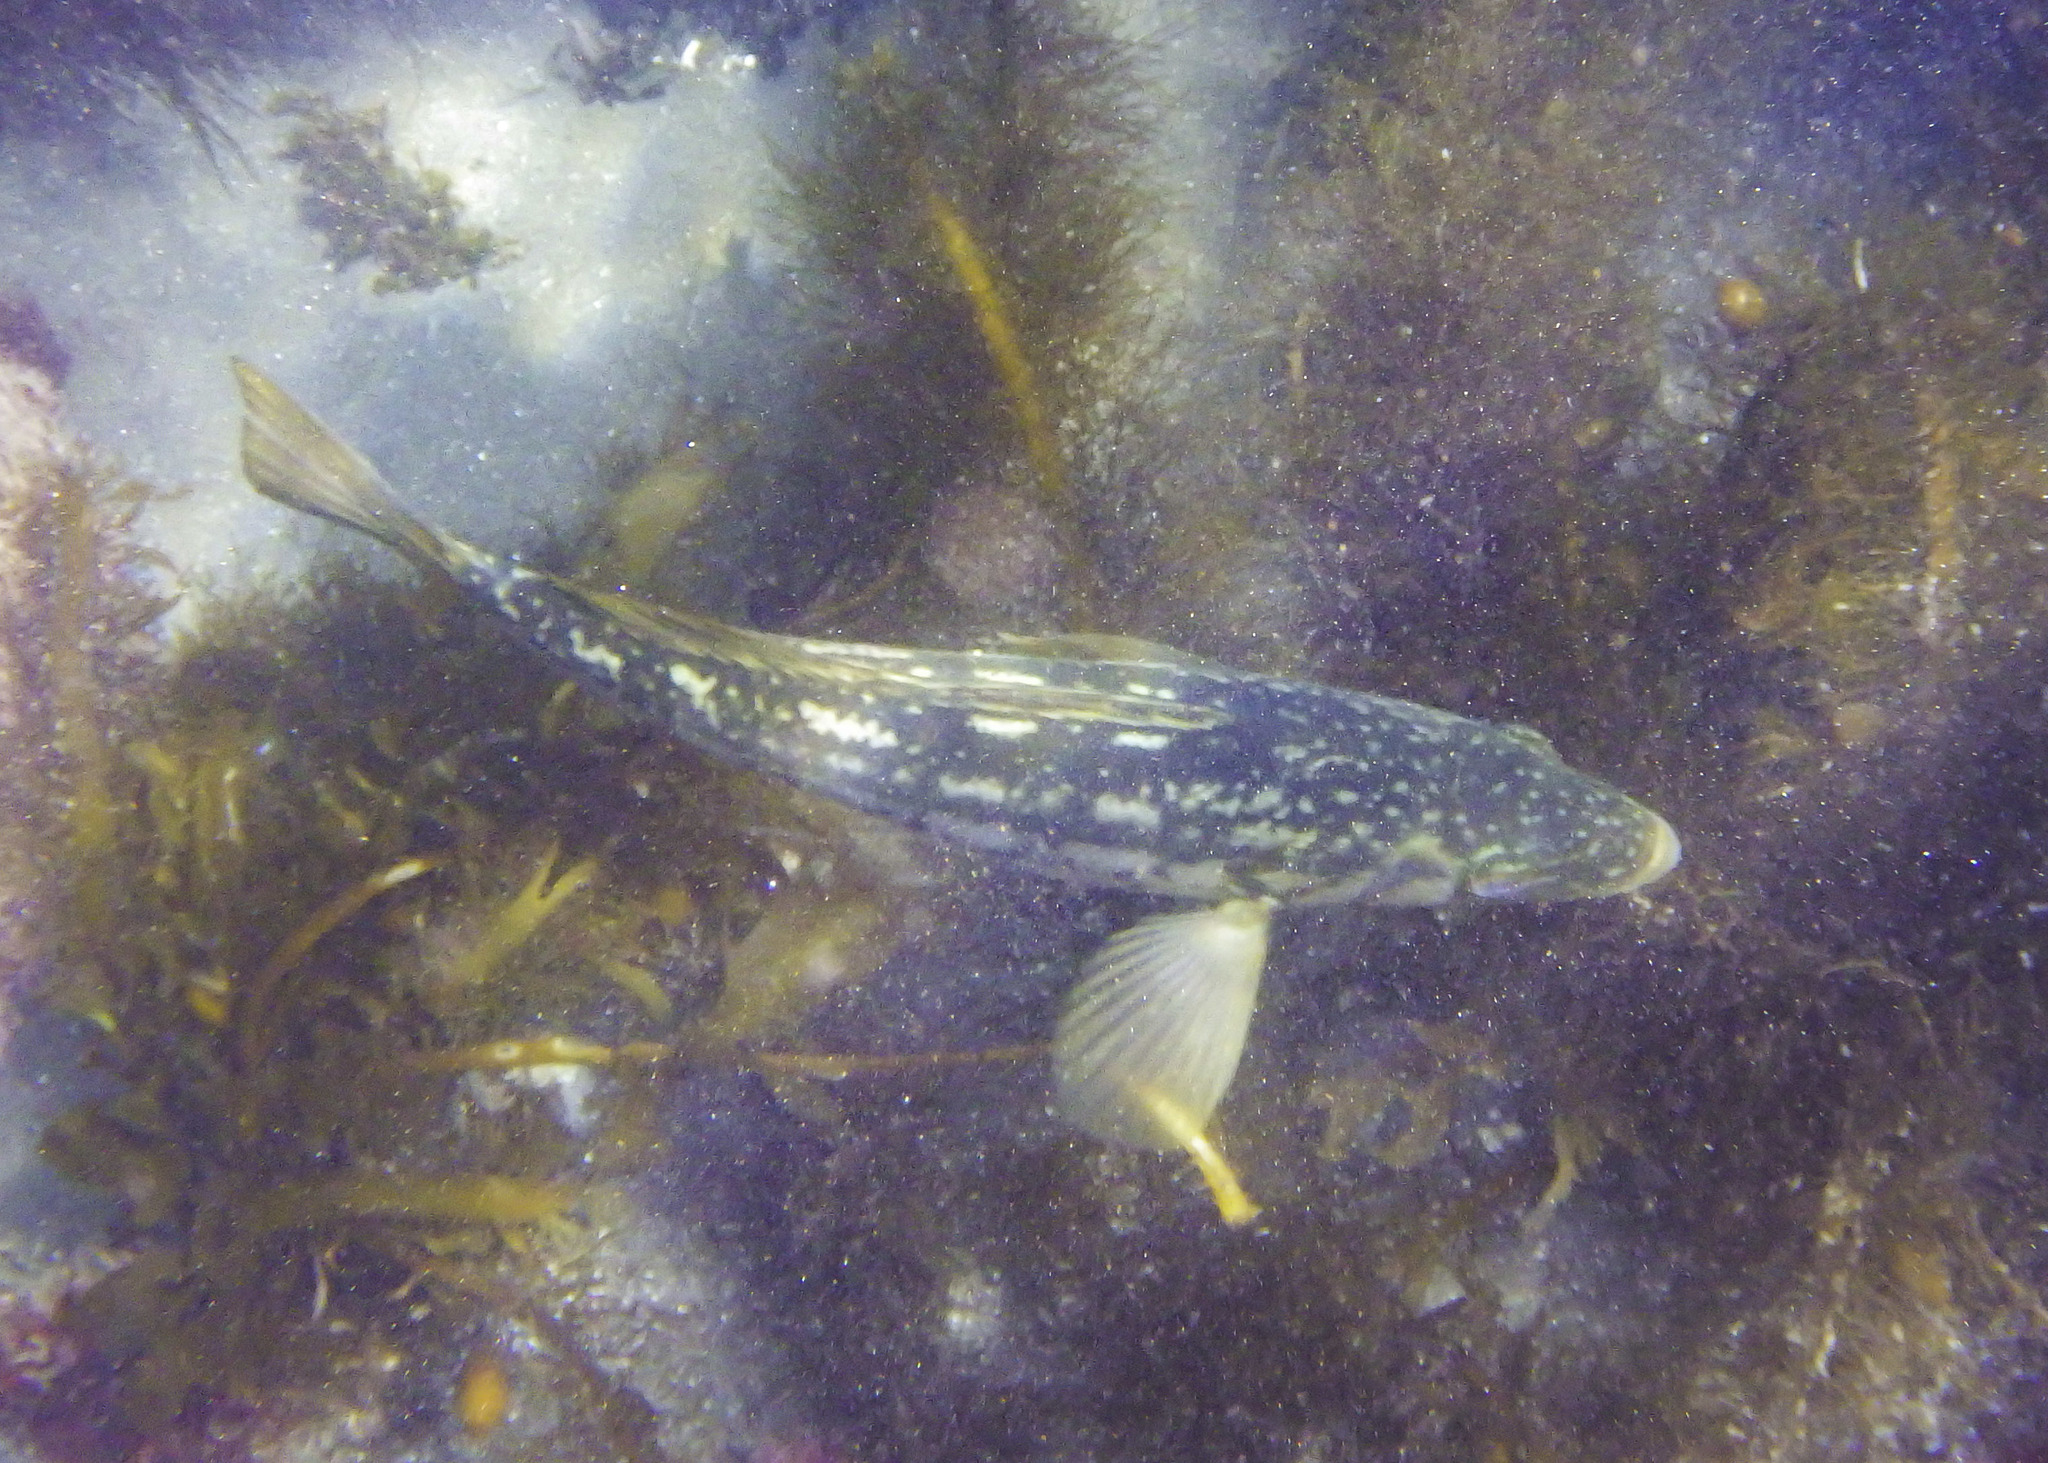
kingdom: Animalia
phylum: Chordata
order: Perciformes
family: Serranidae
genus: Paralabrax
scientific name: Paralabrax clathratus
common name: Kelp bass
